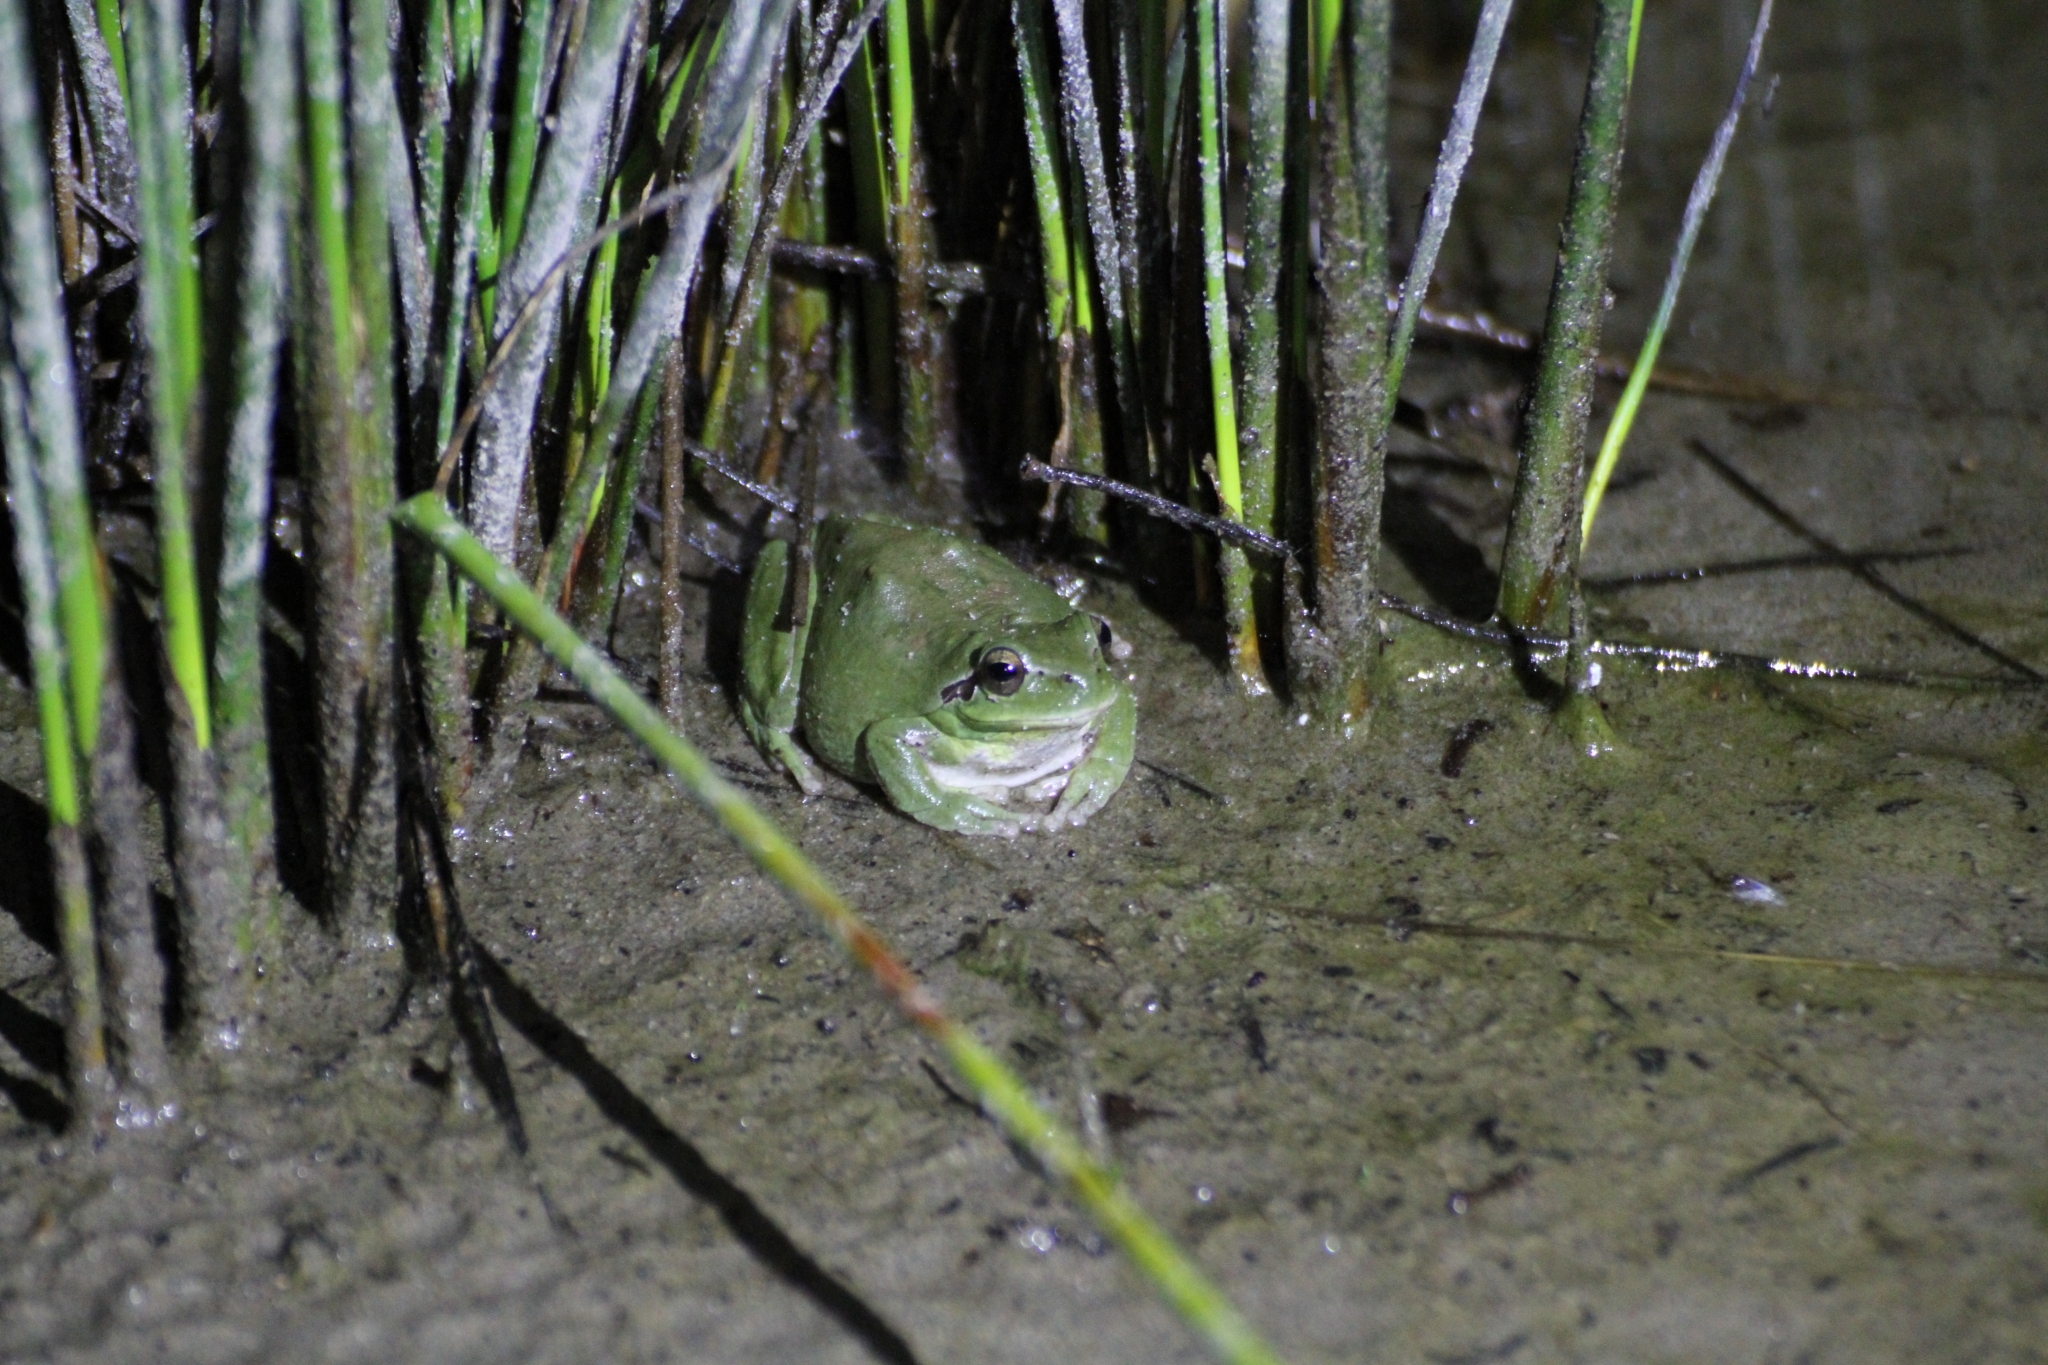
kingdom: Animalia
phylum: Chordata
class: Amphibia
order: Anura
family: Hylidae
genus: Hyla
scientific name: Hyla meridionalis
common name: Stripeless tree frog
